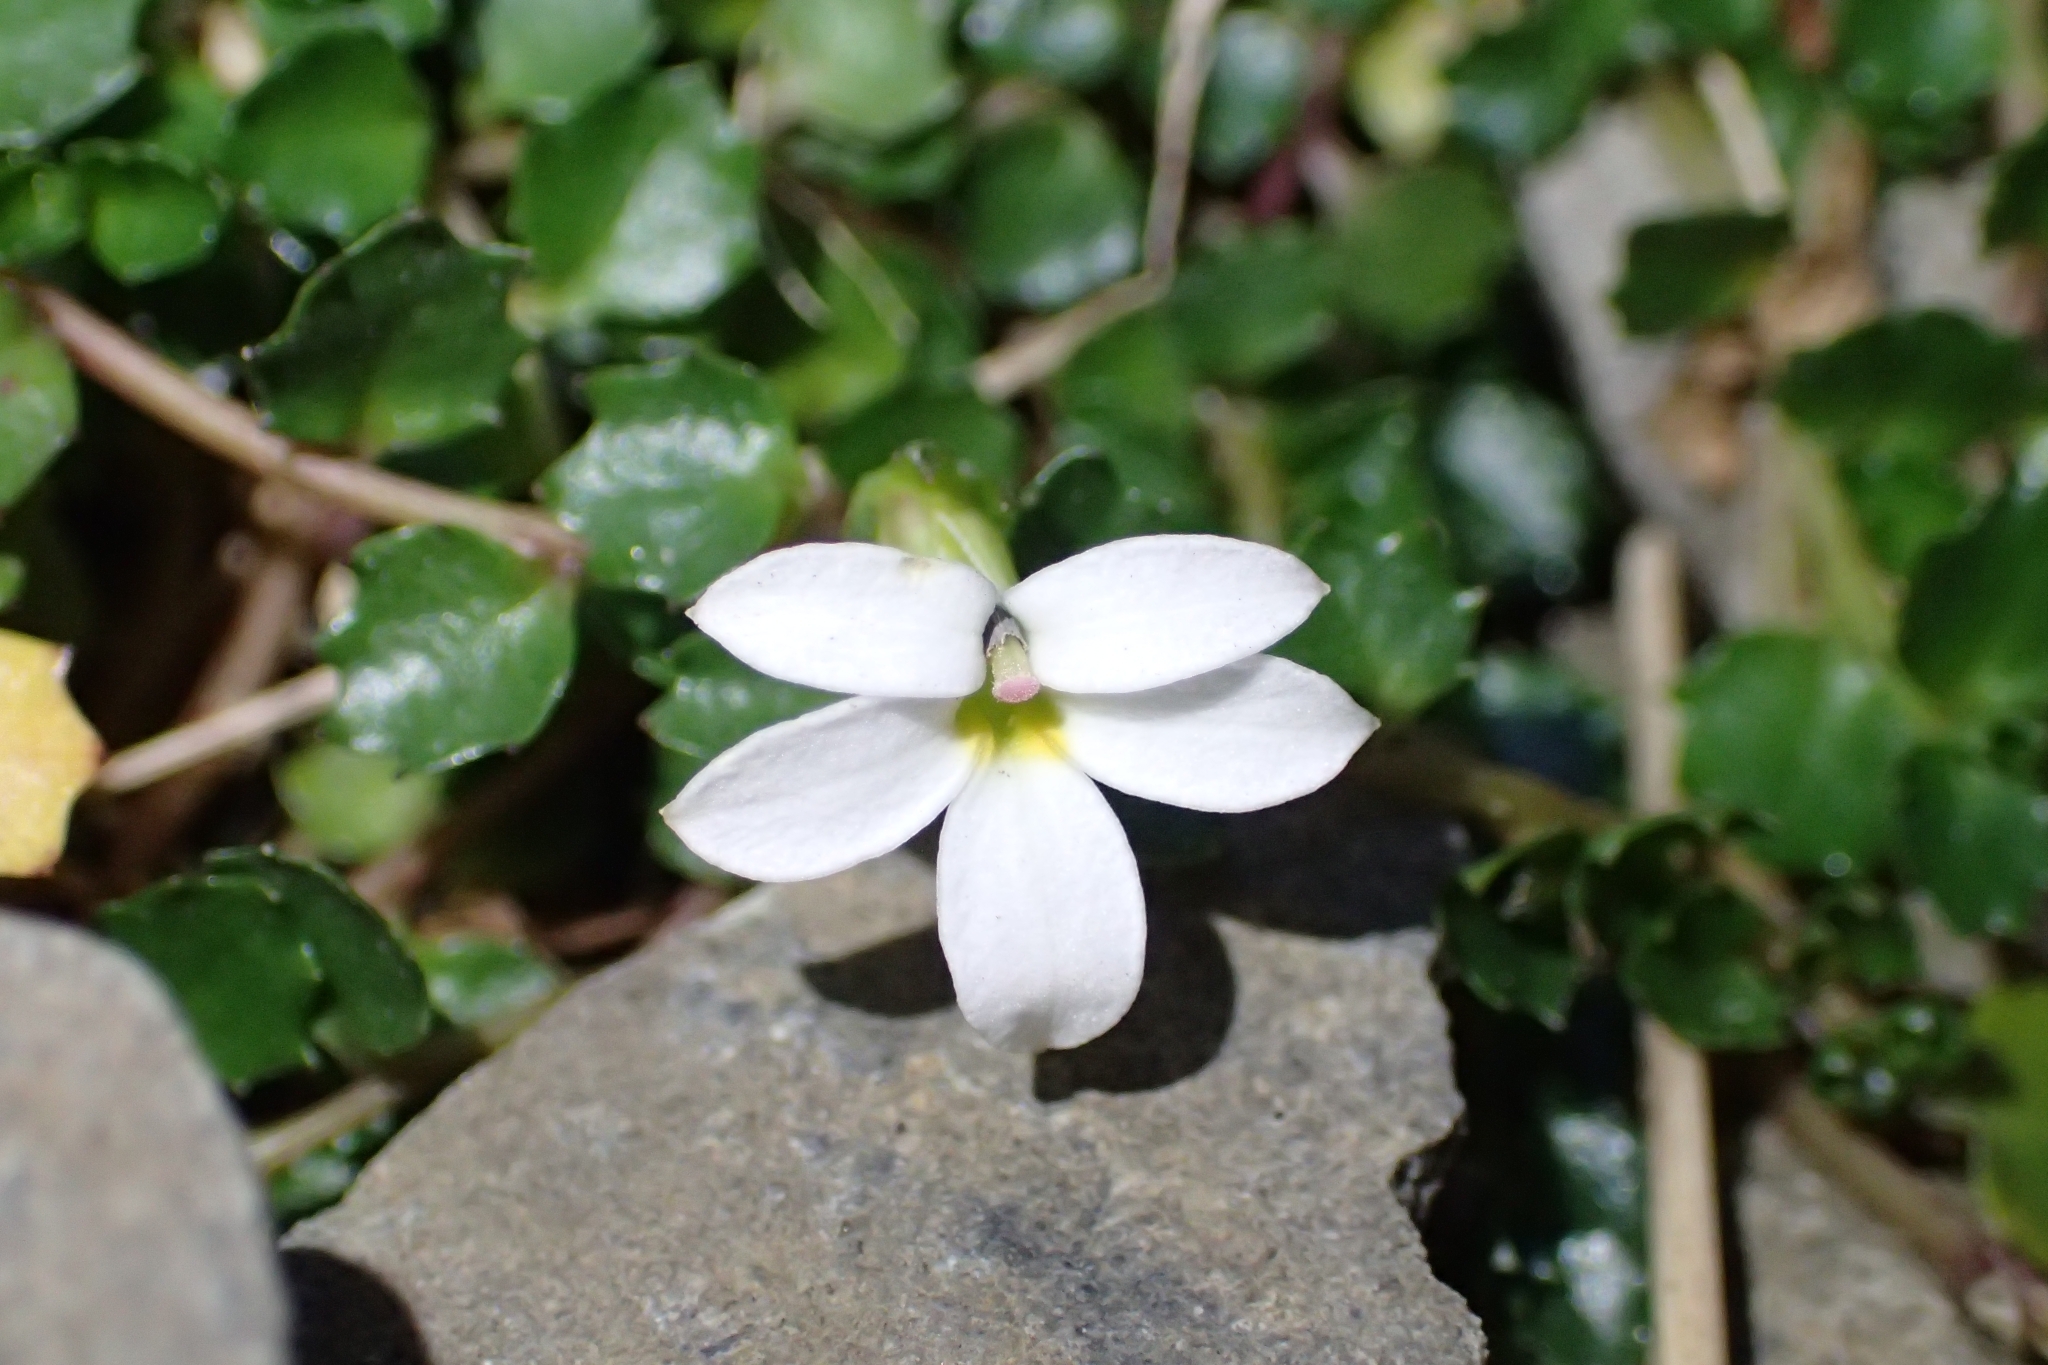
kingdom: Plantae
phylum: Tracheophyta
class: Magnoliopsida
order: Asterales
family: Campanulaceae
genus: Lobelia
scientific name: Lobelia macrodon
